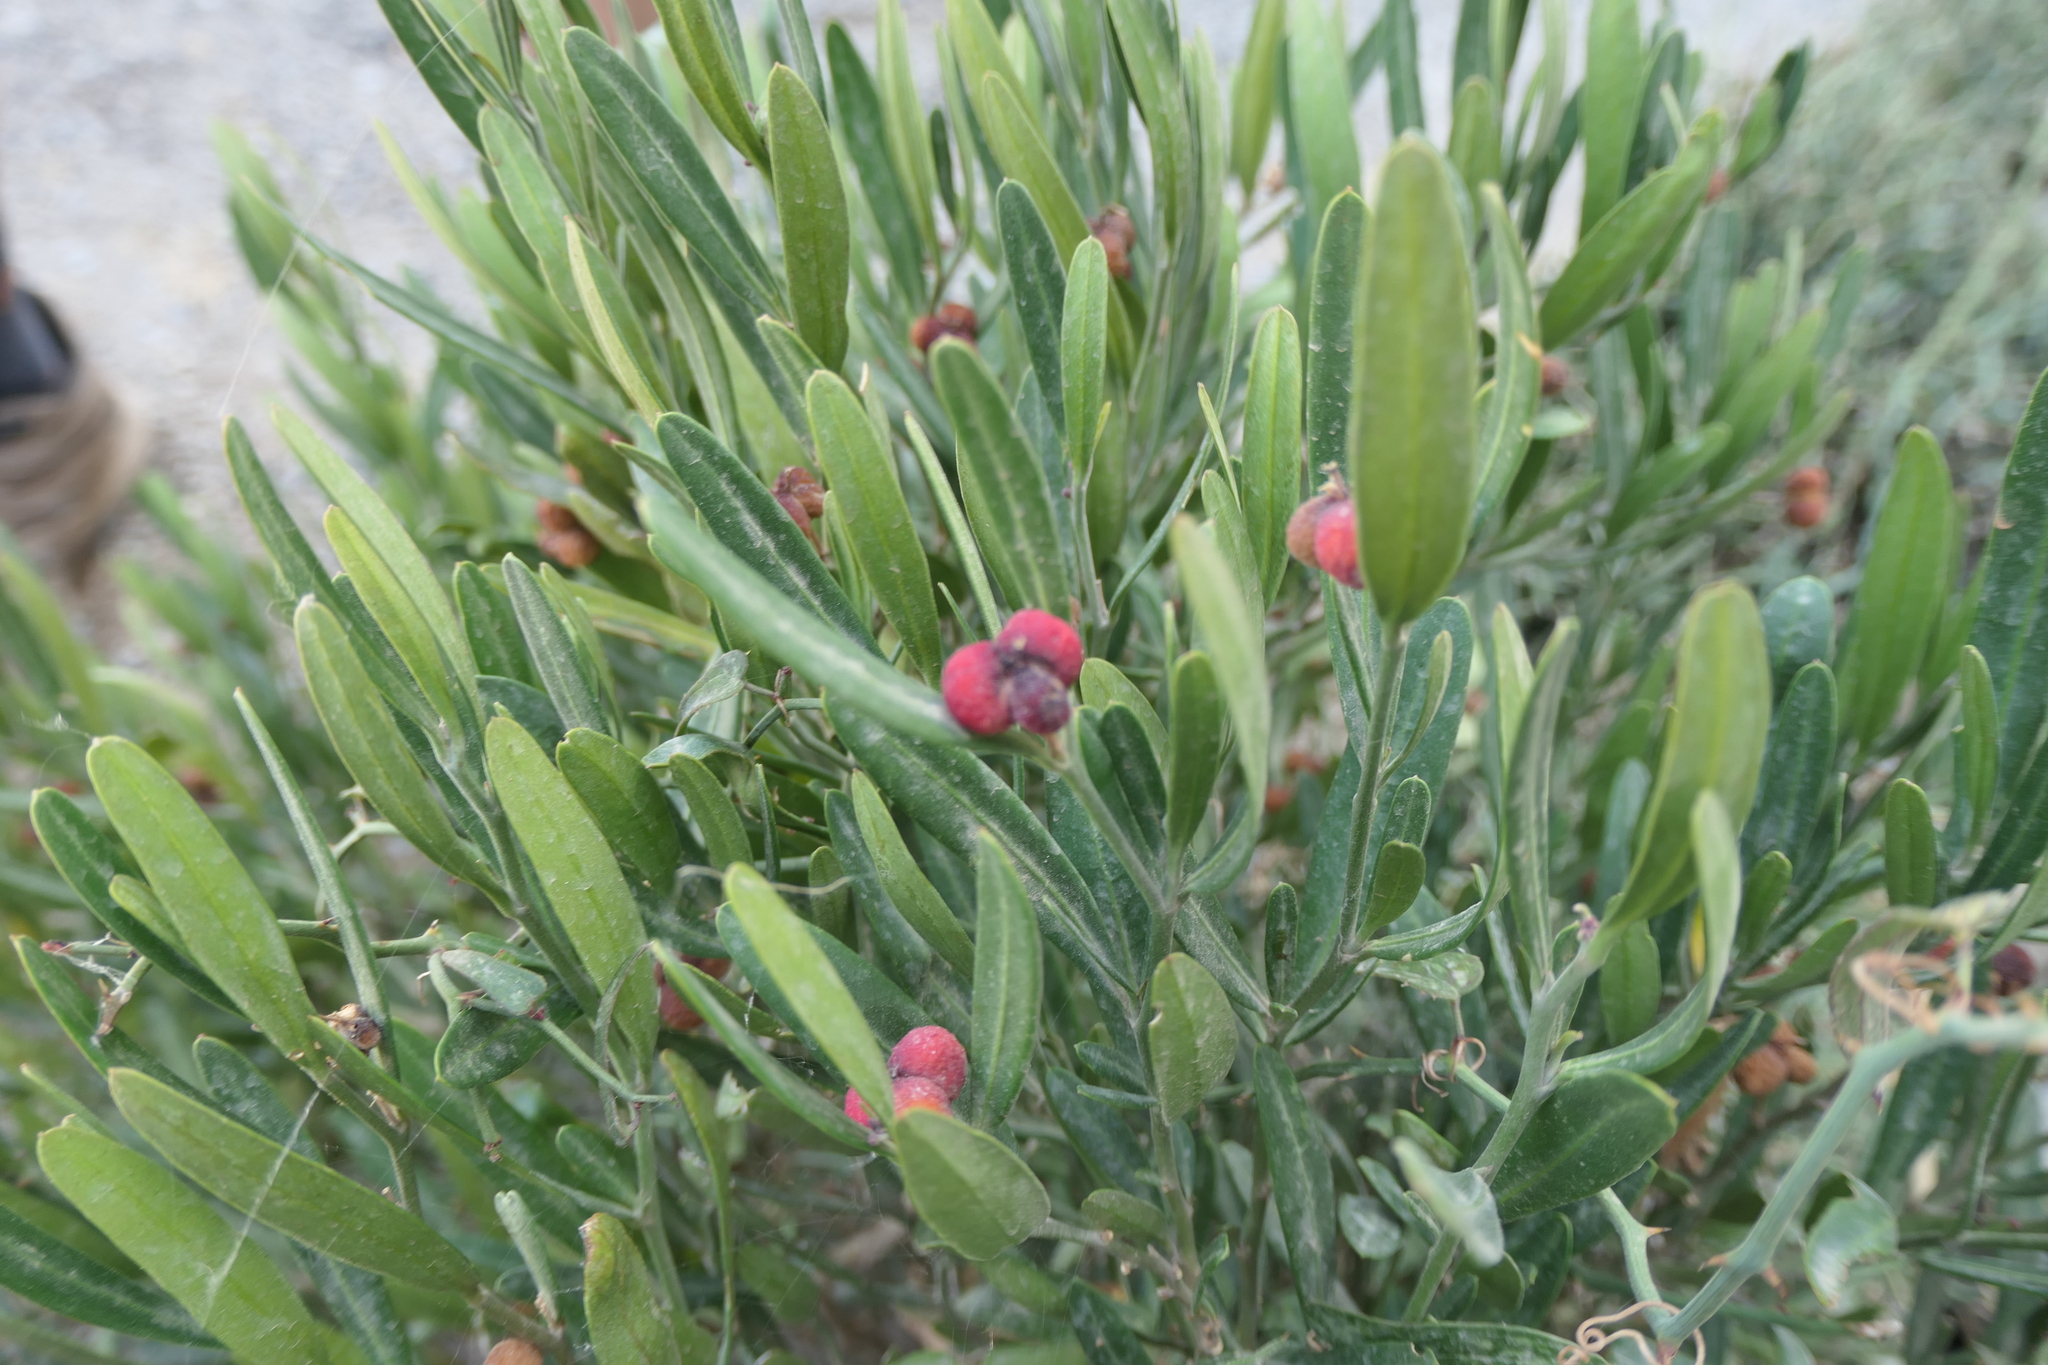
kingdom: Plantae
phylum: Tracheophyta
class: Magnoliopsida
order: Sapindales
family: Rutaceae
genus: Cneorum
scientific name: Cneorum tricoccon
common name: Spurge olive
